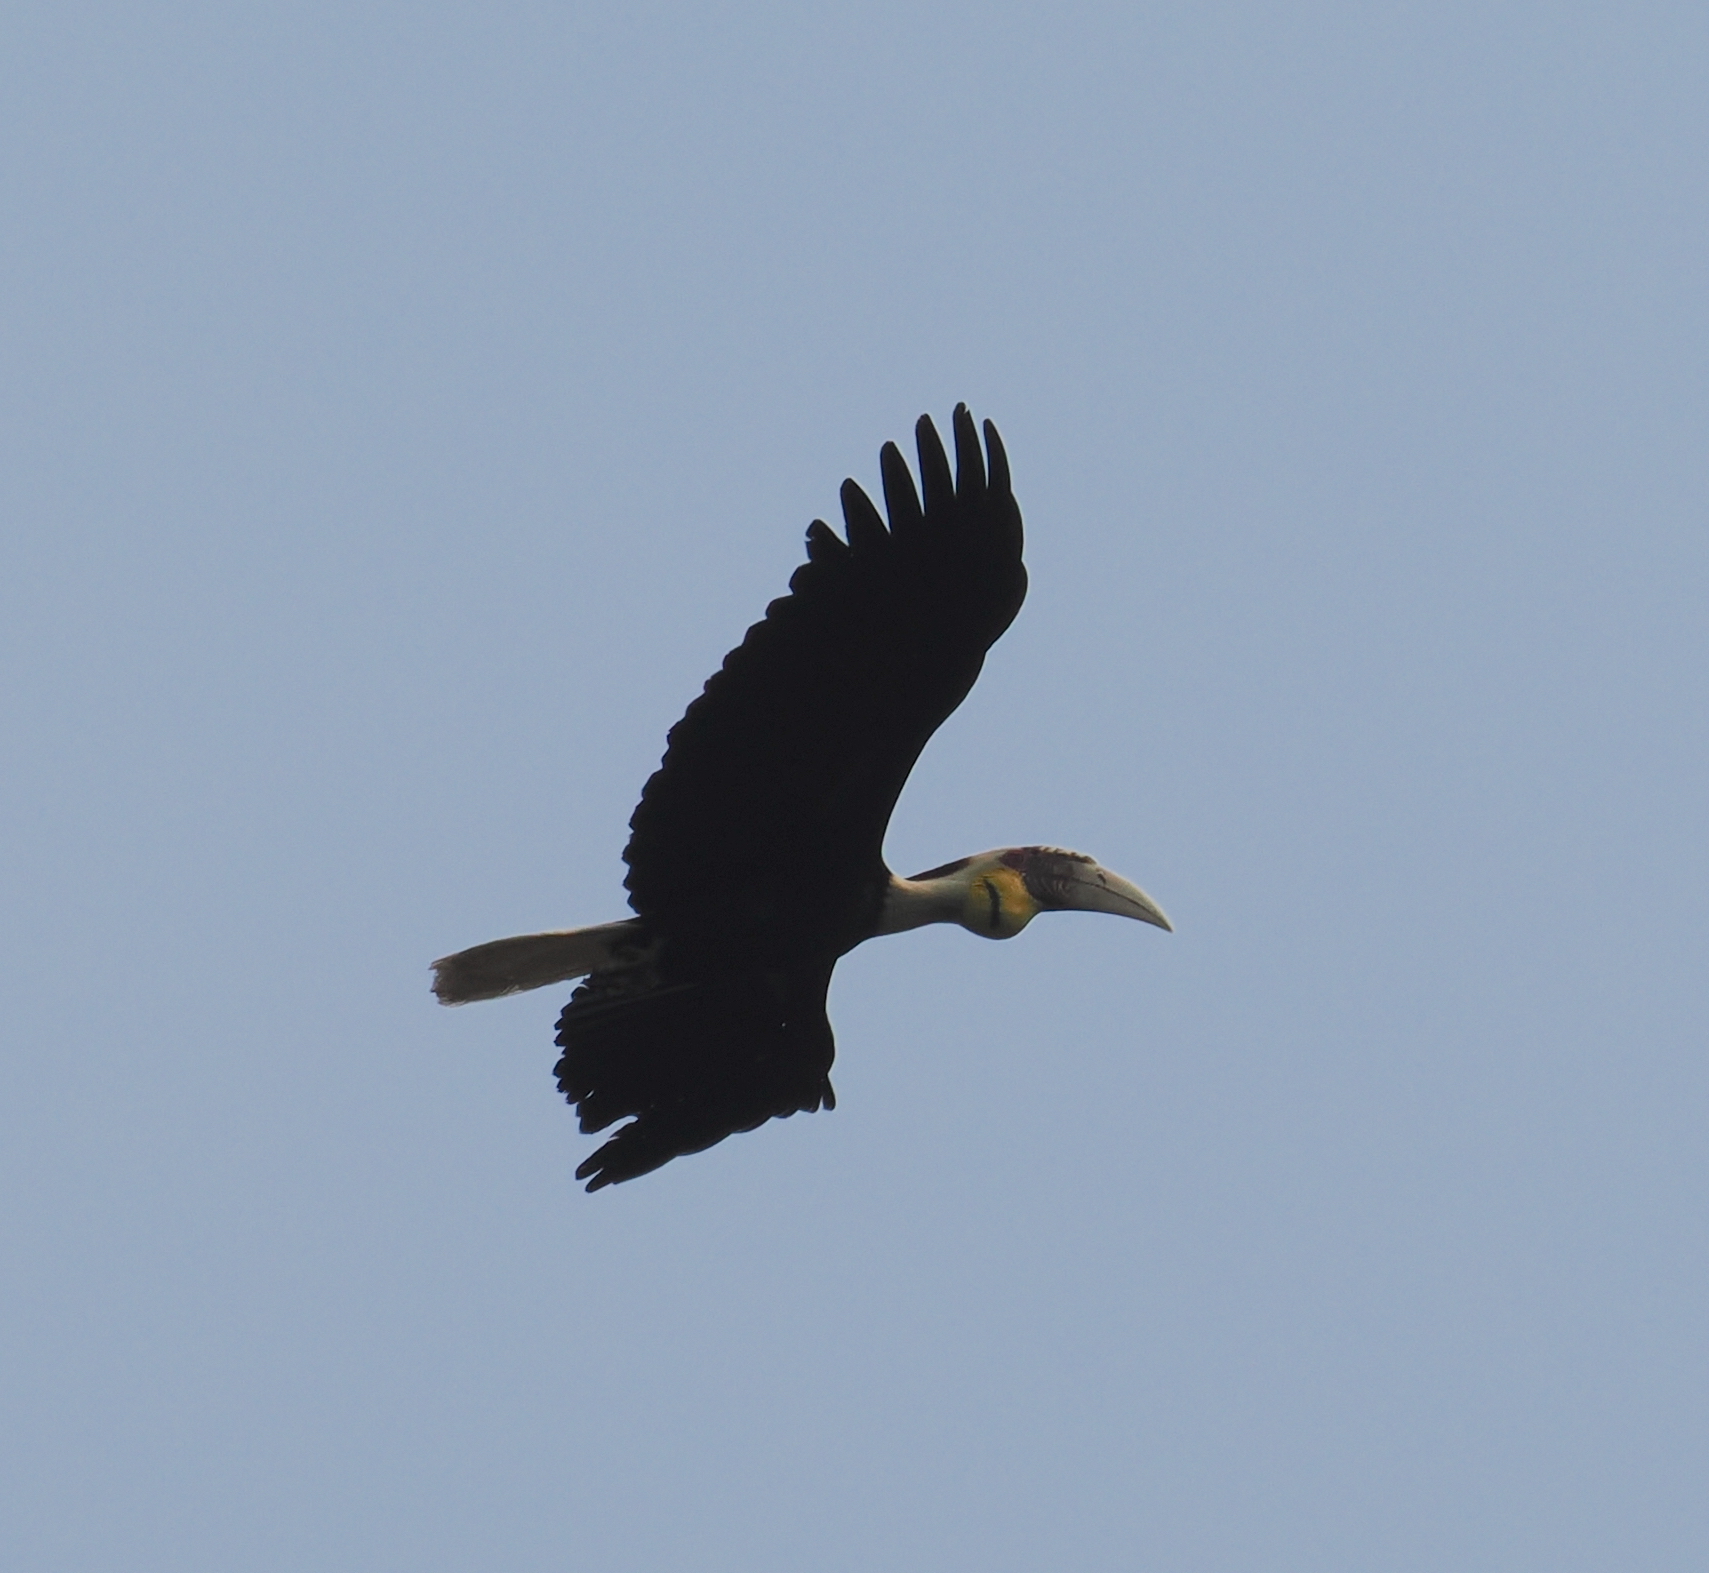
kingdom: Animalia
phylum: Chordata
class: Aves
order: Bucerotiformes
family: Bucerotidae
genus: Rhyticeros
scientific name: Rhyticeros undulatus
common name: Wreathed hornbill
